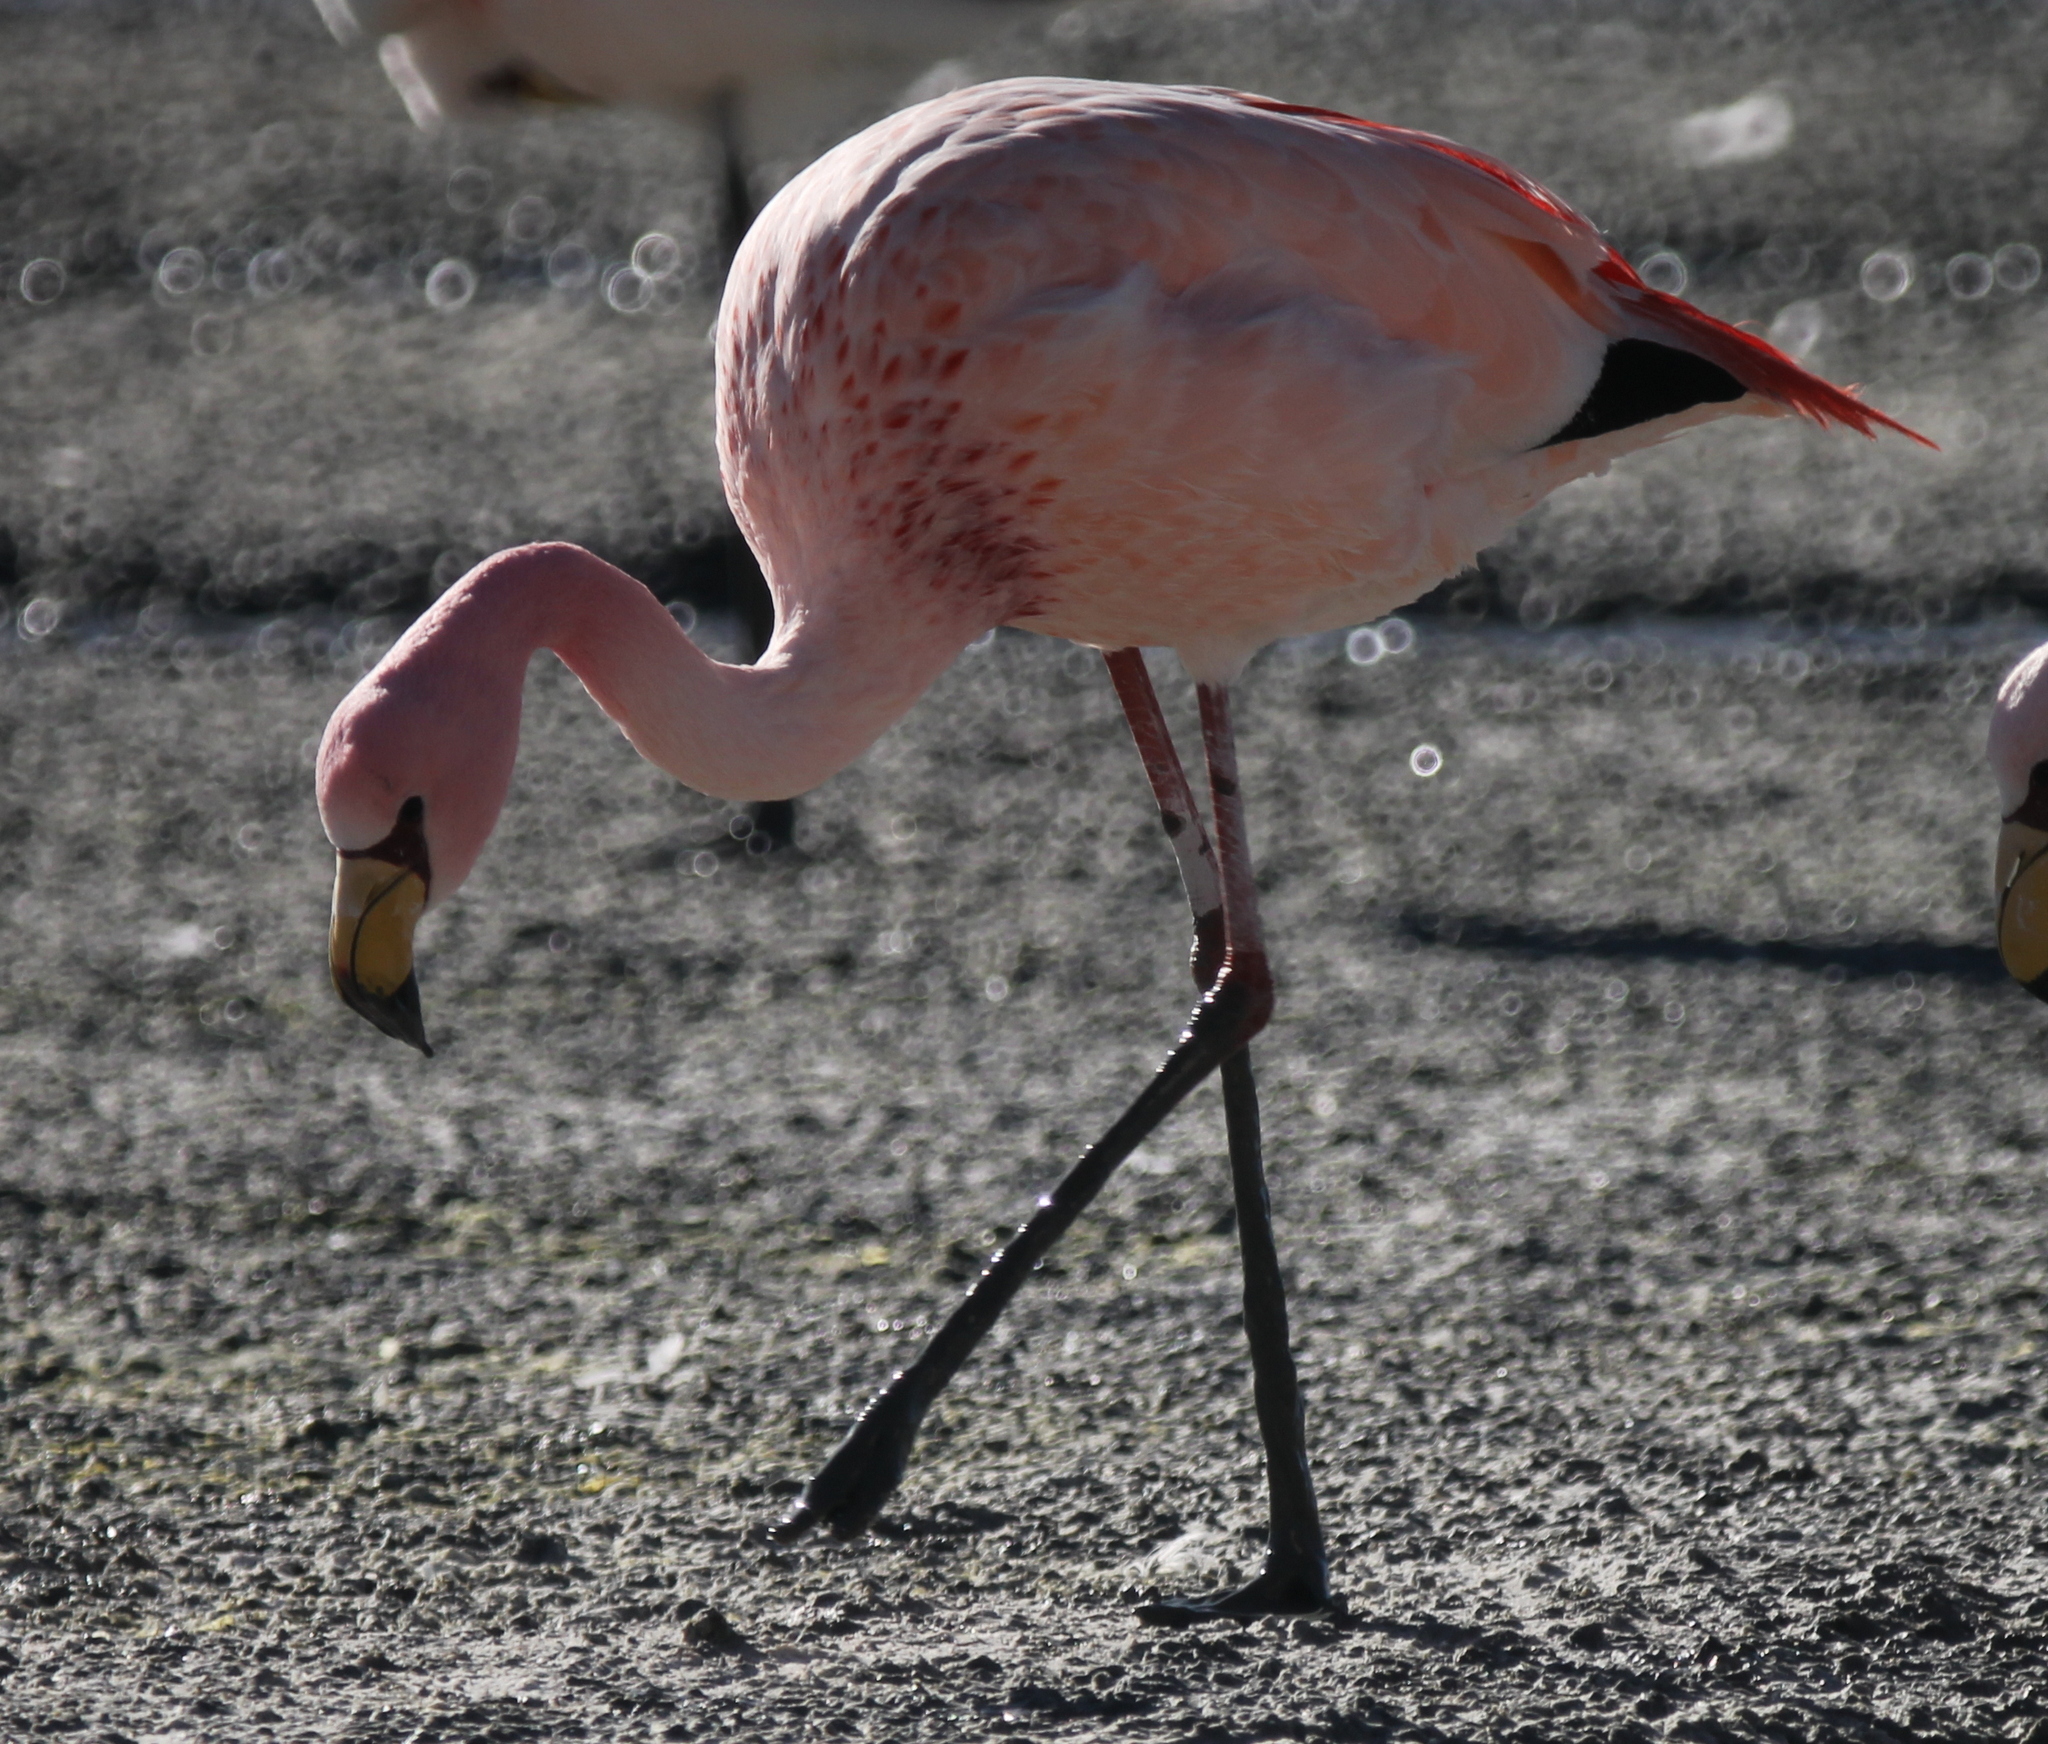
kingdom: Animalia
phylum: Chordata
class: Aves
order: Phoenicopteriformes
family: Phoenicopteridae
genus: Phoenicoparrus
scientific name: Phoenicoparrus jamesi
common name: James's flamingo
